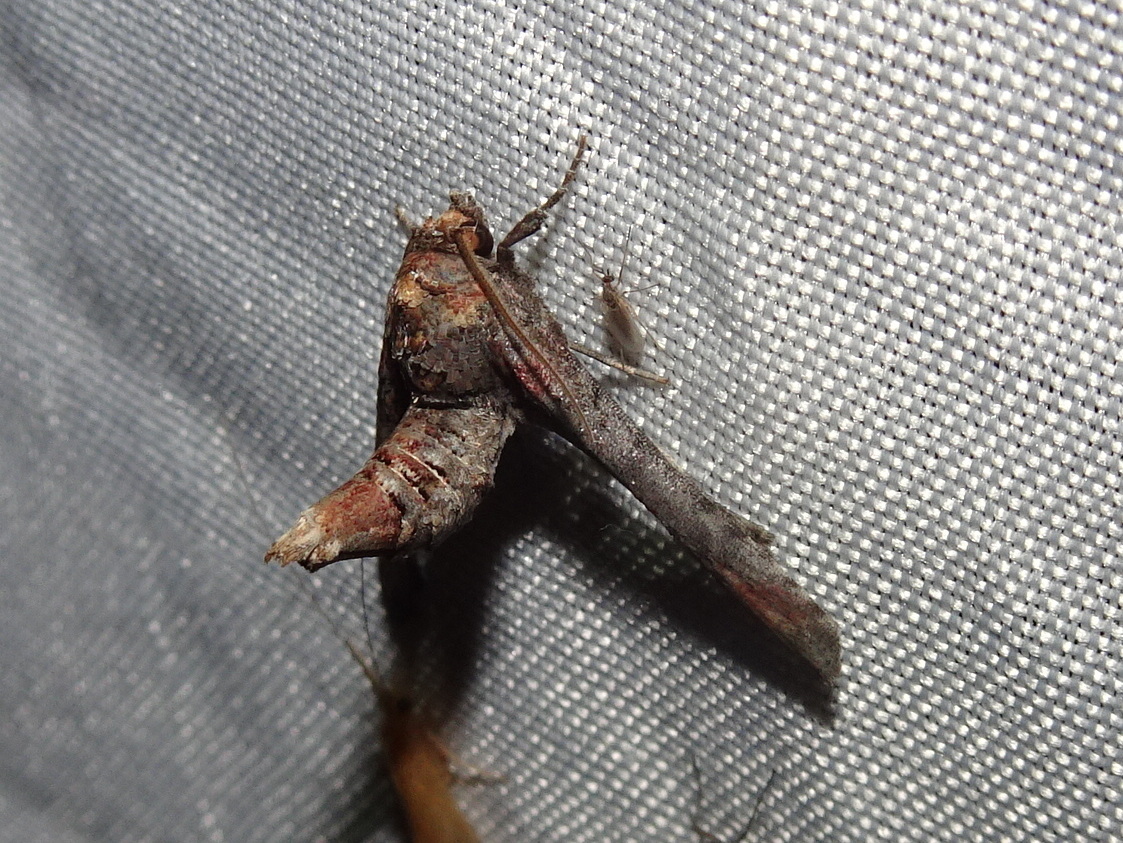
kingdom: Animalia
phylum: Arthropoda
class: Insecta
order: Lepidoptera
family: Euteliidae
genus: Marathyssa
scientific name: Marathyssa inficita
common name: Dark marathyssa moth
